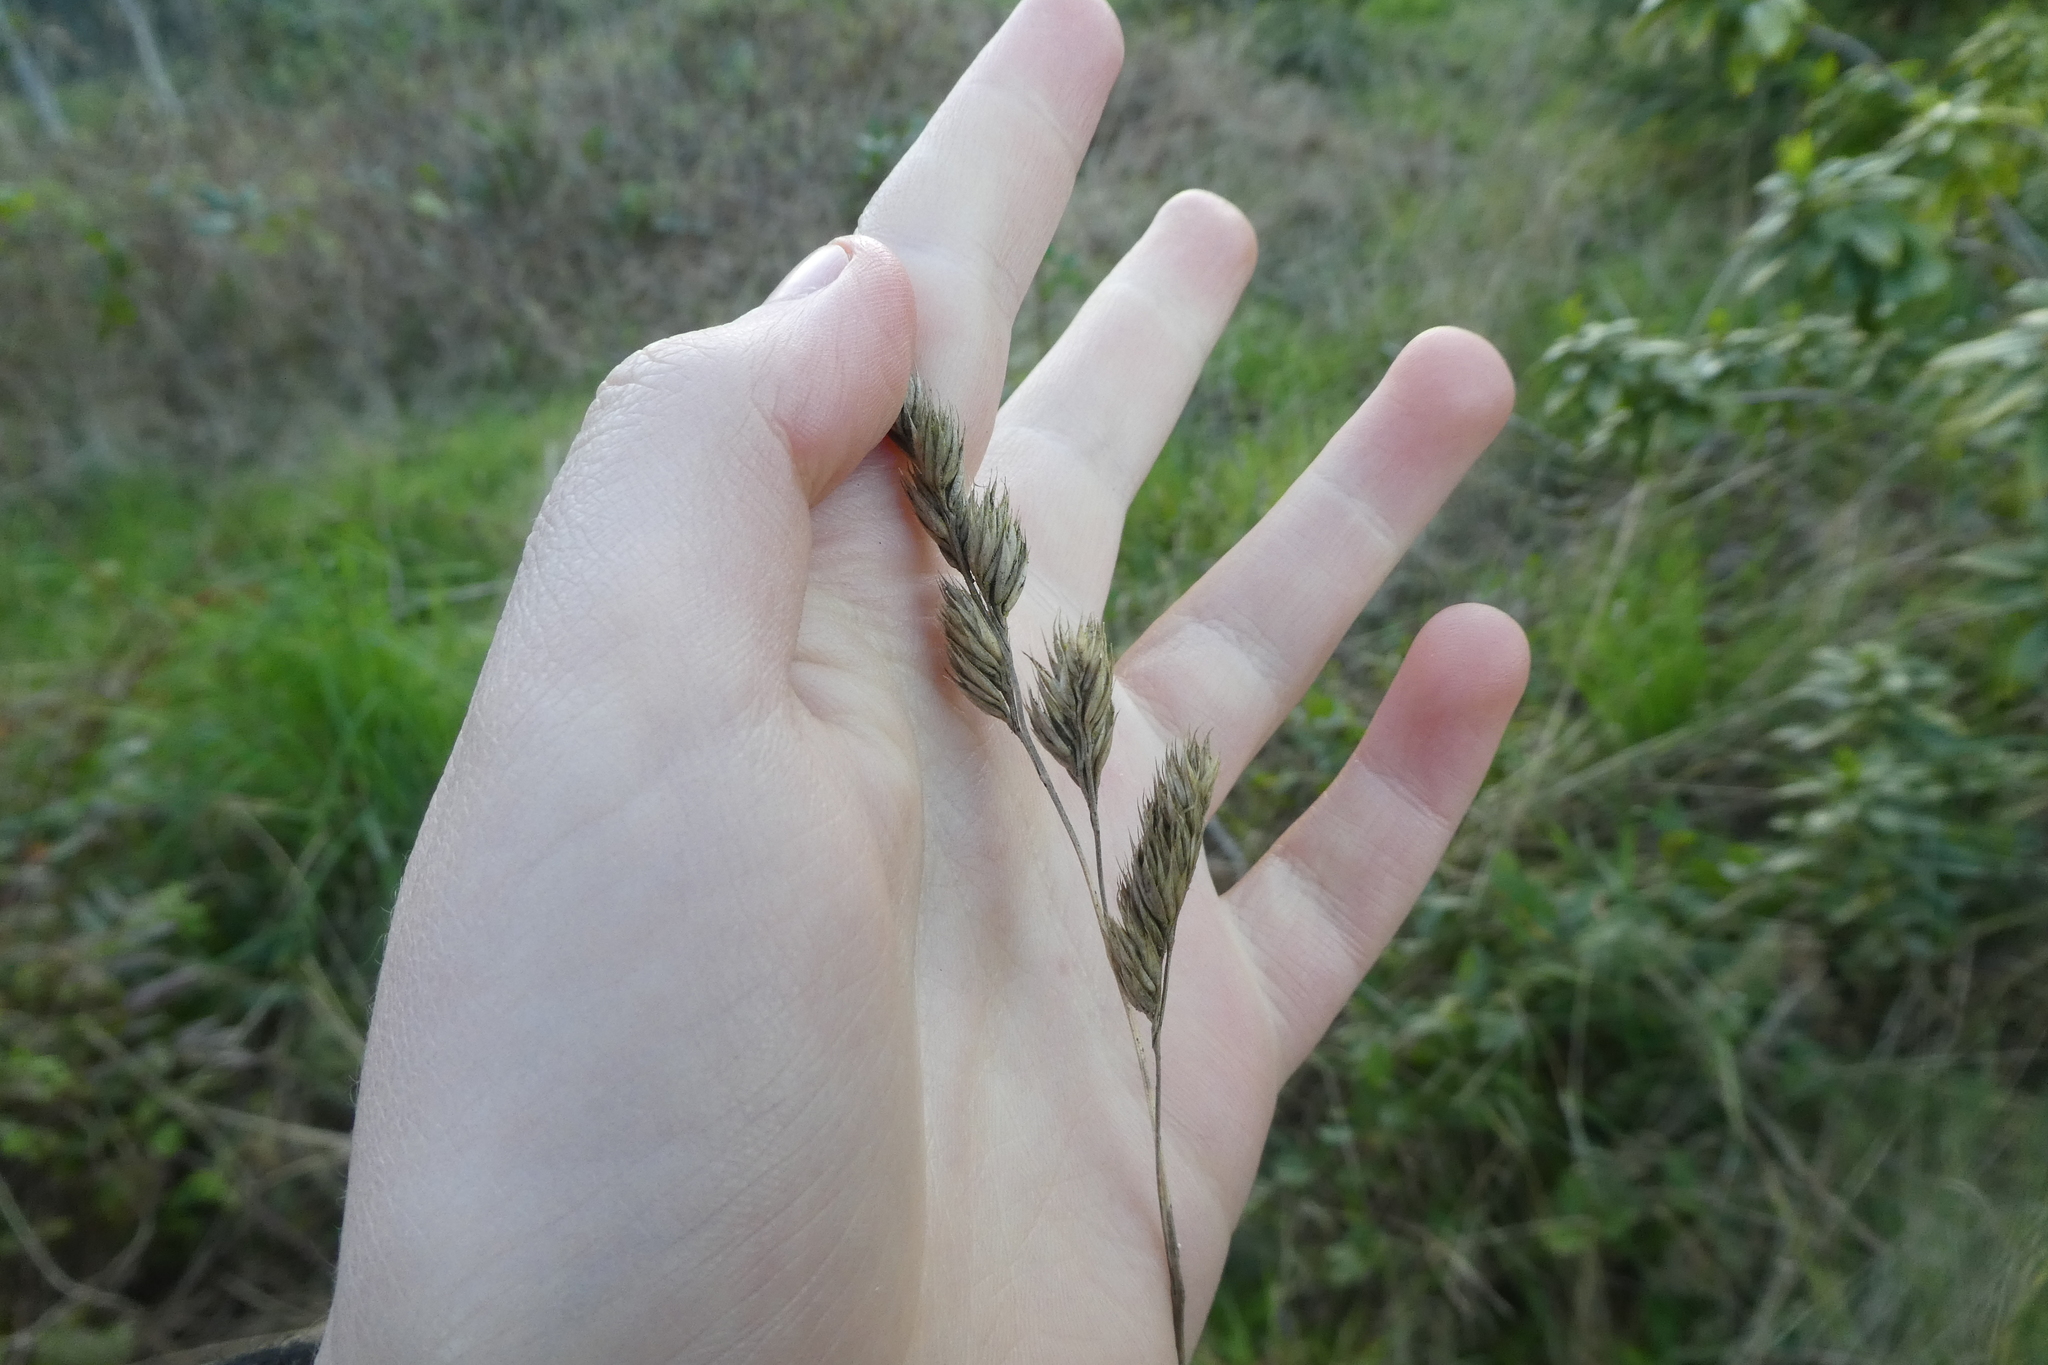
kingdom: Plantae
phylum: Tracheophyta
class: Liliopsida
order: Poales
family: Poaceae
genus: Dactylis
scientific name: Dactylis glomerata
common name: Orchardgrass
